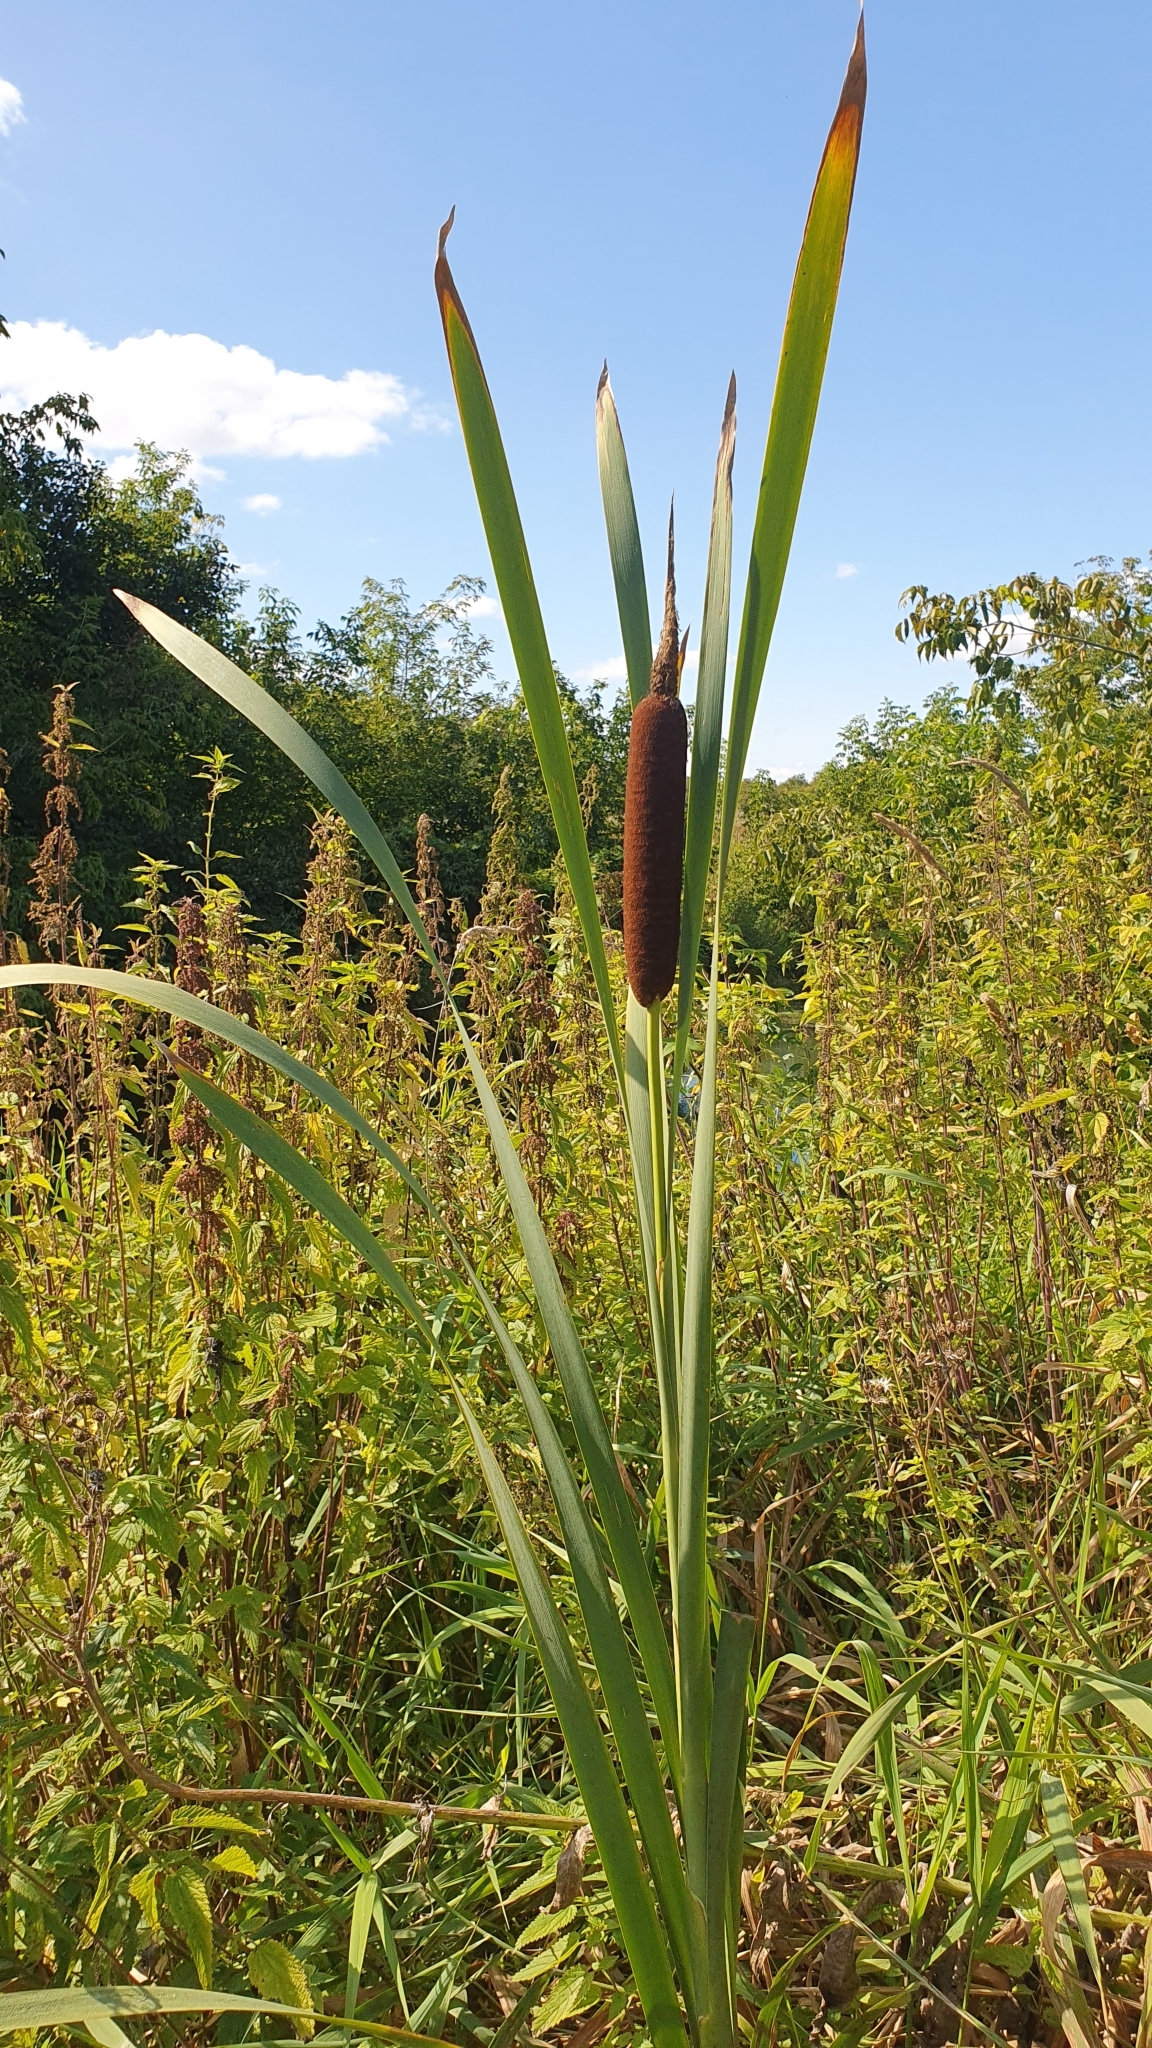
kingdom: Plantae
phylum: Tracheophyta
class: Liliopsida
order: Poales
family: Typhaceae
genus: Typha
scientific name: Typha latifolia
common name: Broadleaf cattail
